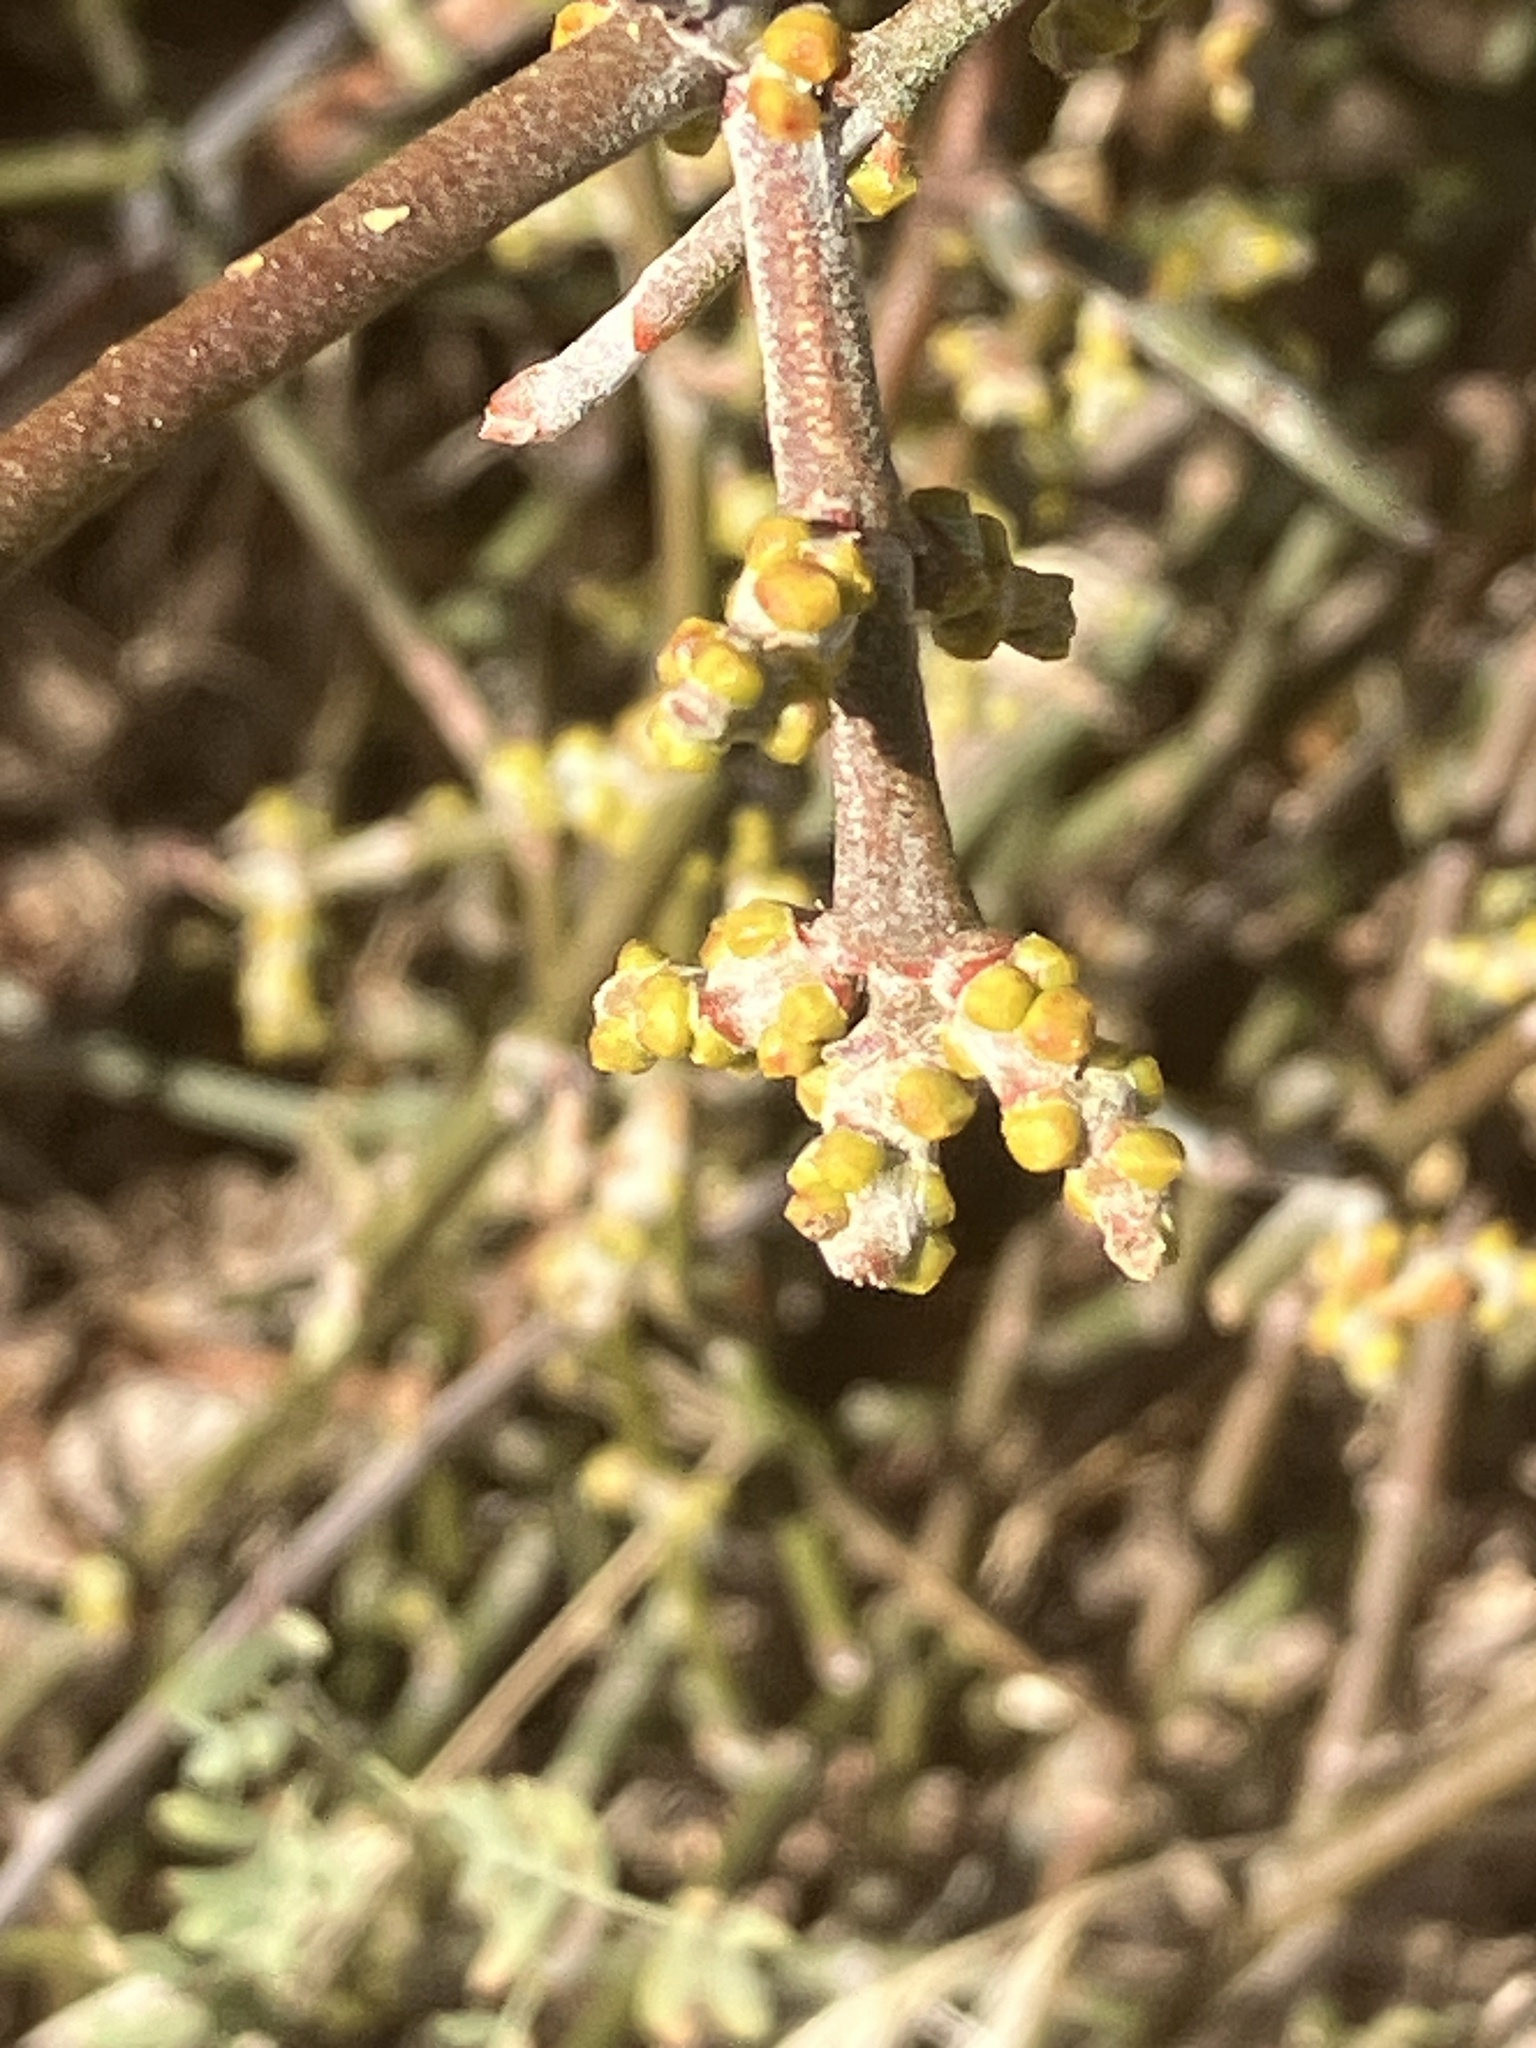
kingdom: Plantae
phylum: Tracheophyta
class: Magnoliopsida
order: Santalales
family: Viscaceae
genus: Phoradendron
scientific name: Phoradendron californicum
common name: Acacia mistletoe
